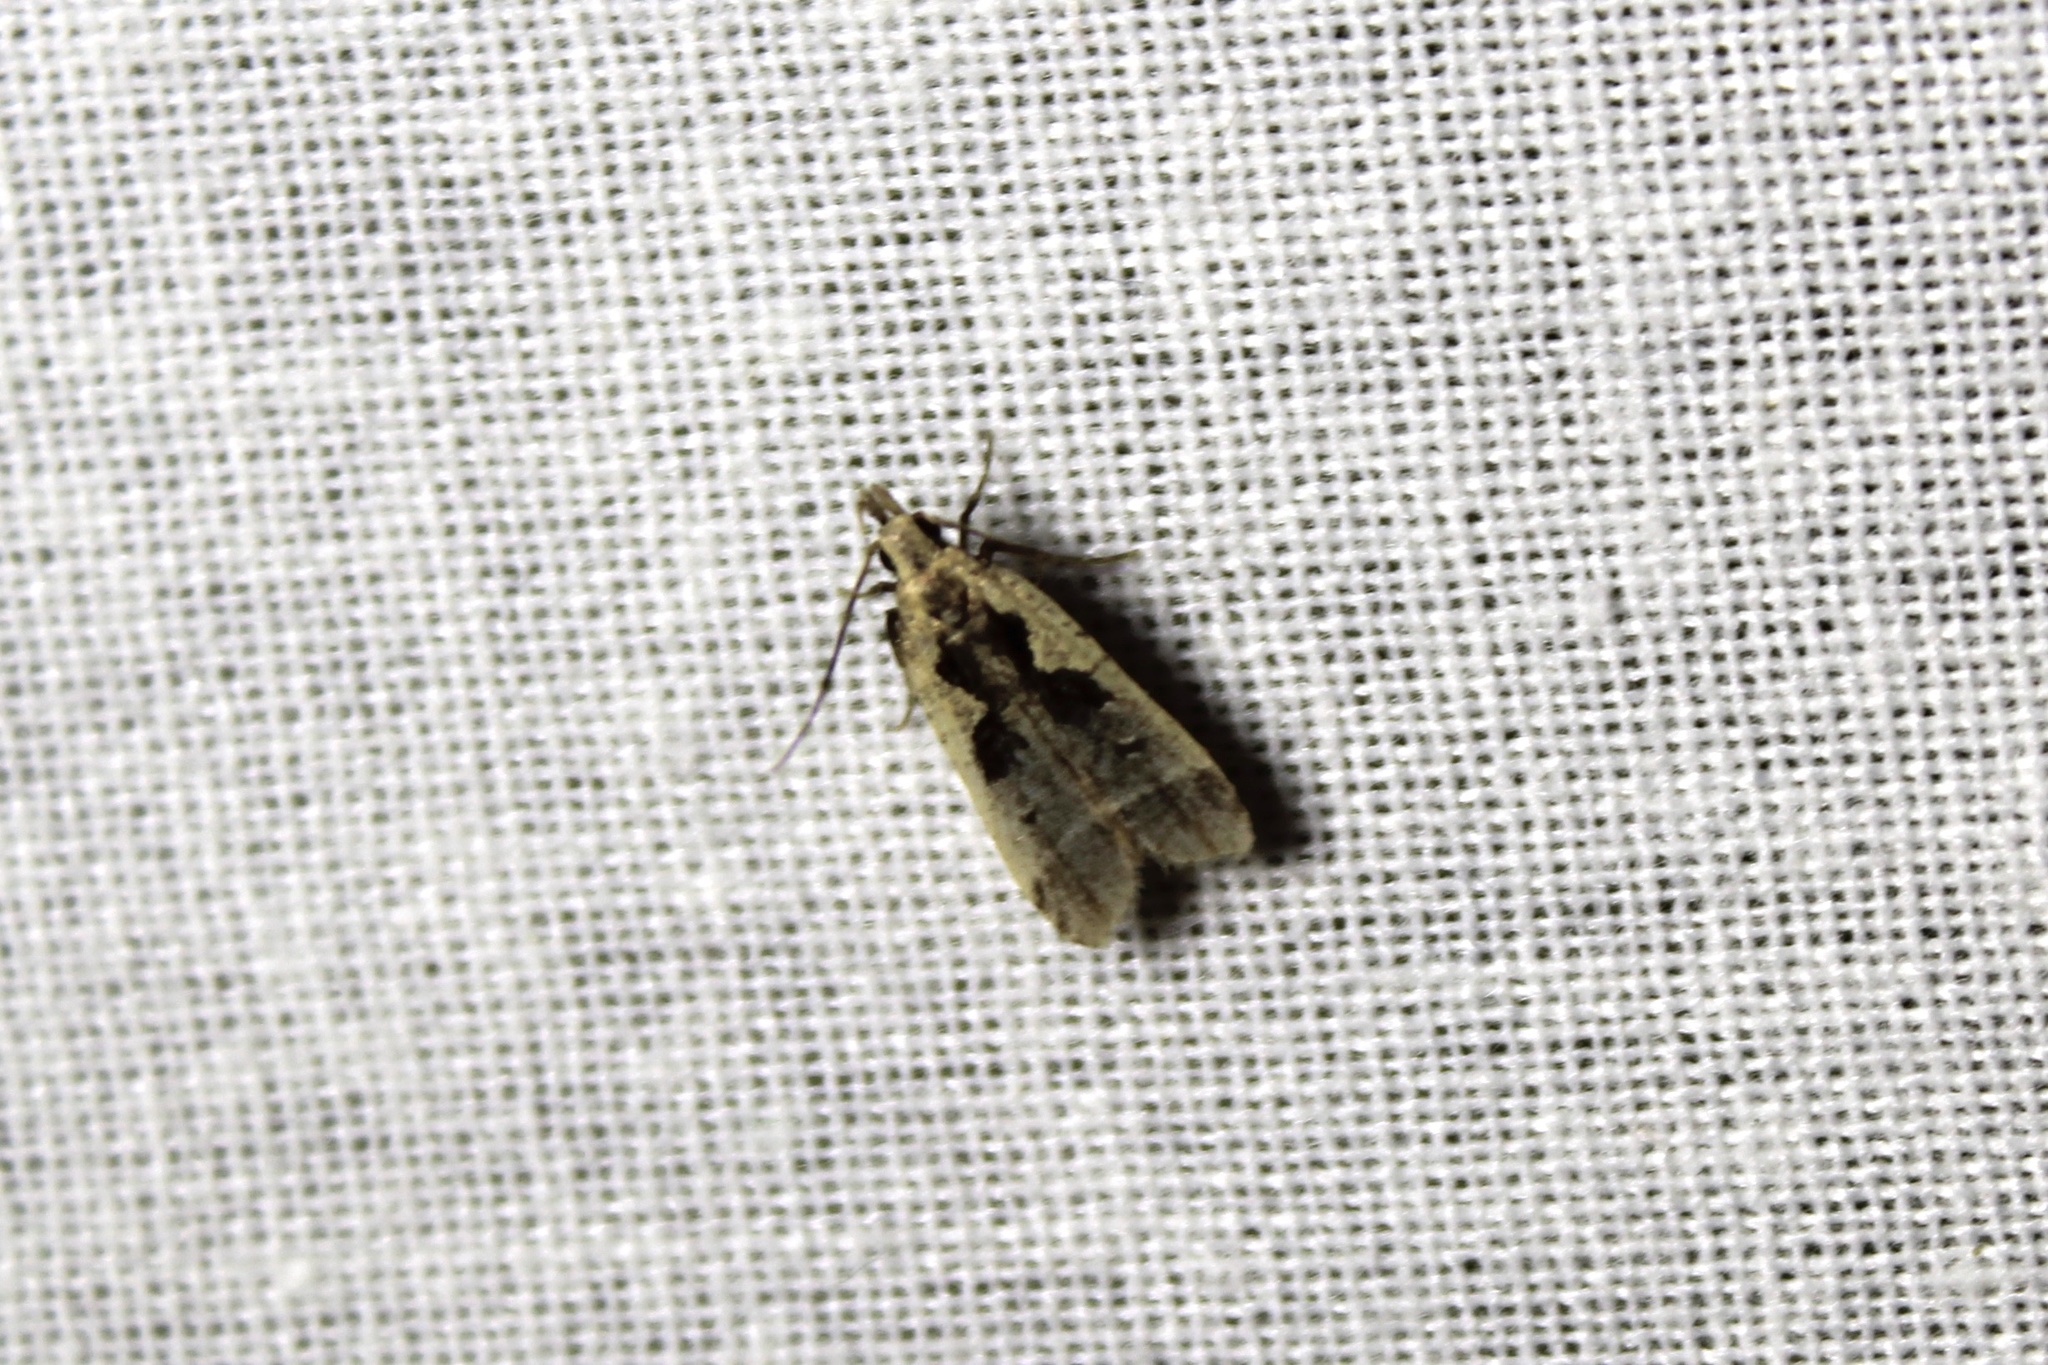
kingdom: Animalia
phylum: Arthropoda
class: Insecta
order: Lepidoptera
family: Gelechiidae
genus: Dichomeris
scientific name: Dichomeris bilobella
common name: Bilobed dichomeris moth
